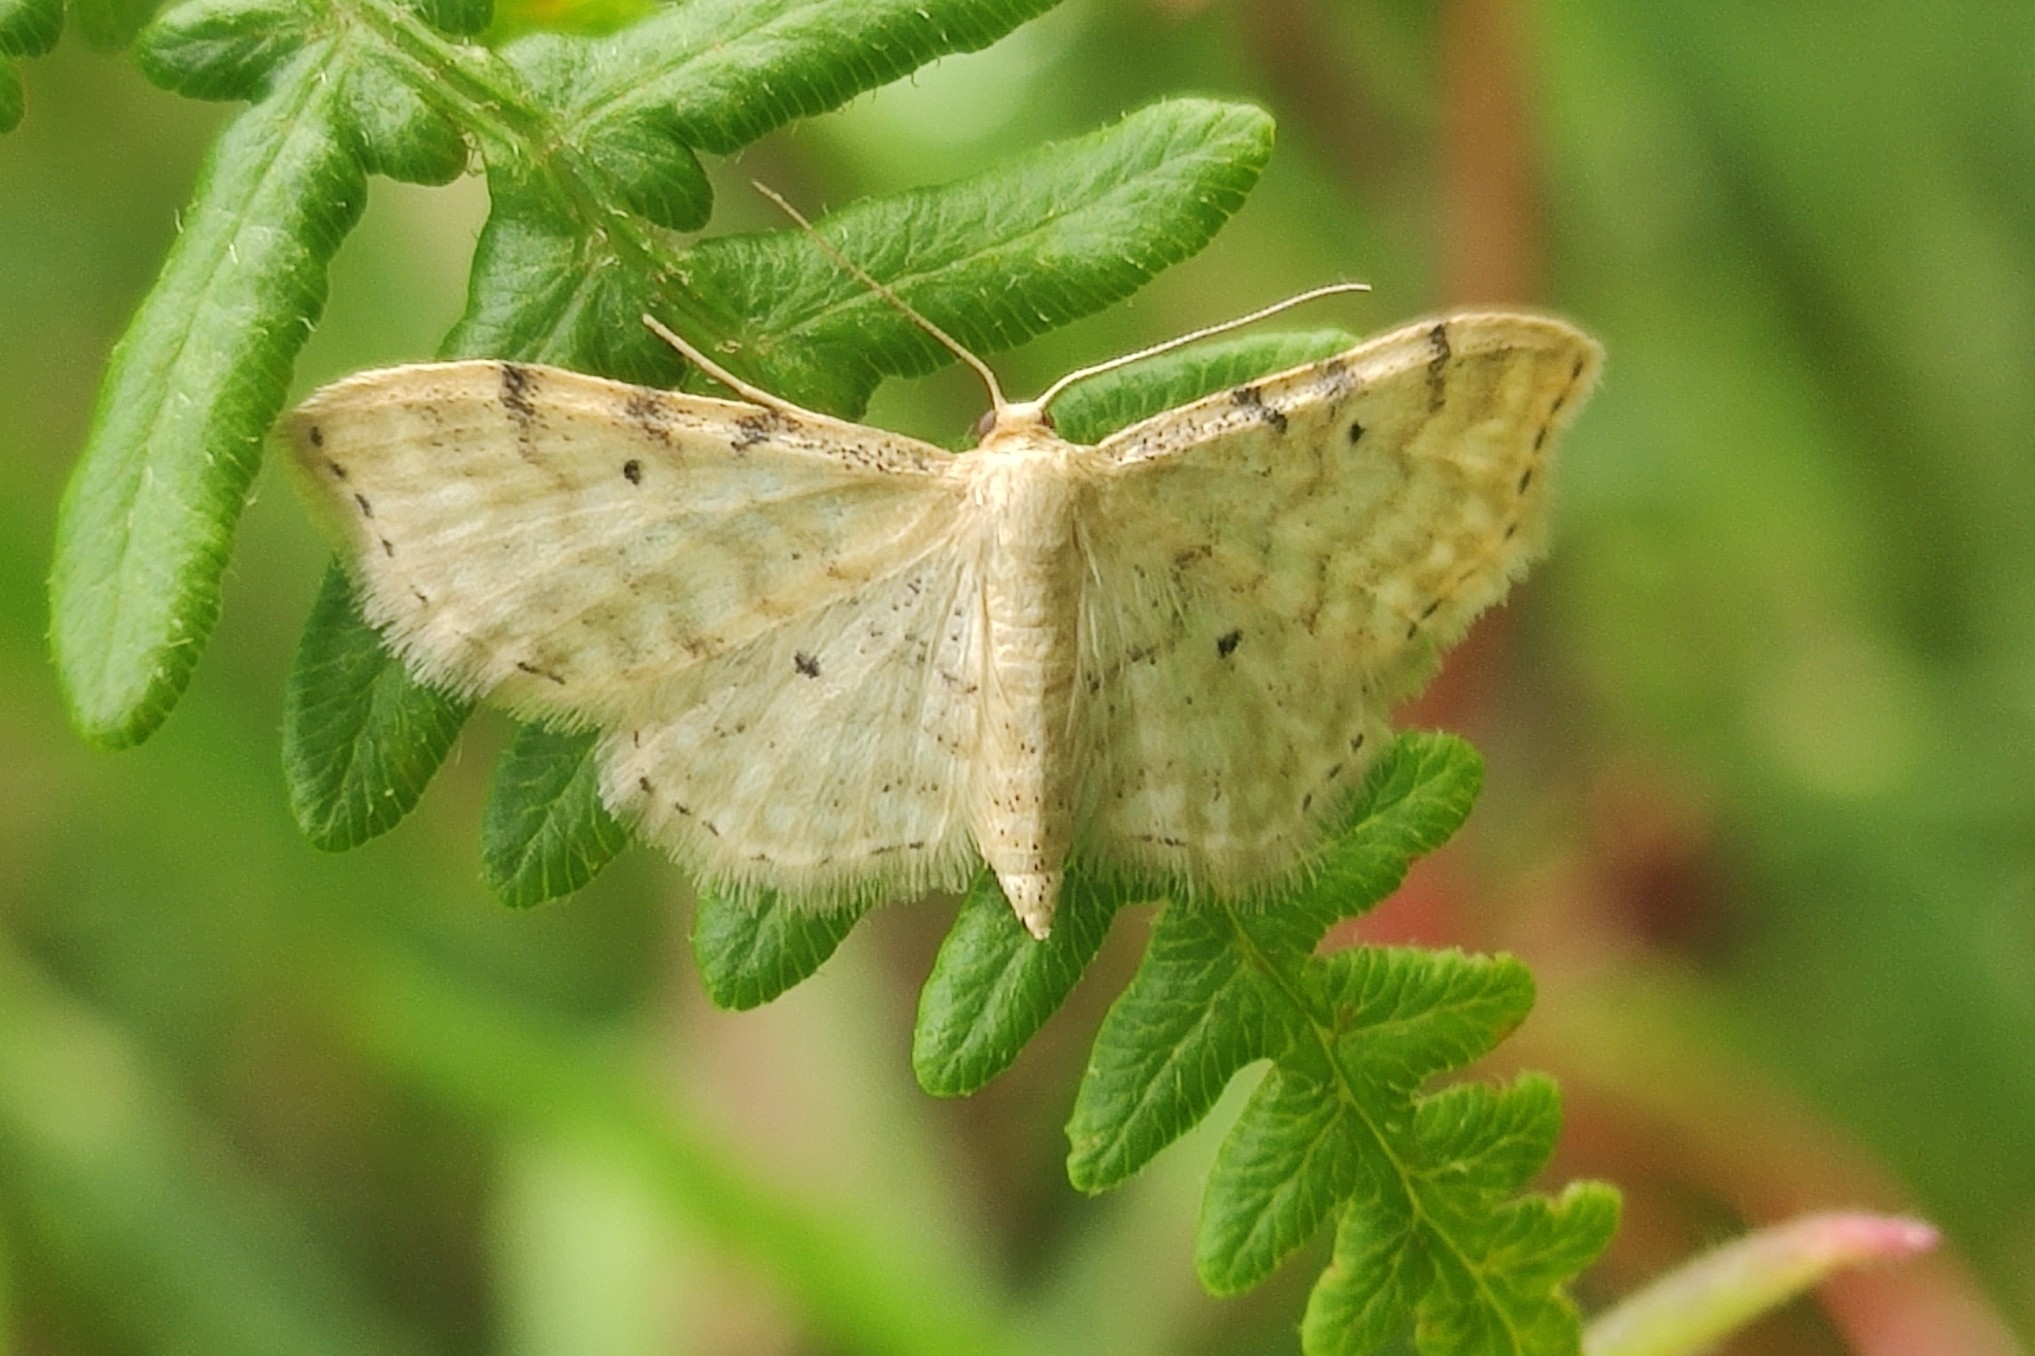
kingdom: Animalia
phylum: Arthropoda
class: Insecta
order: Lepidoptera
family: Geometridae
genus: Idaea
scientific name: Idaea fuscovenosa
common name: Dwarf cream wave
